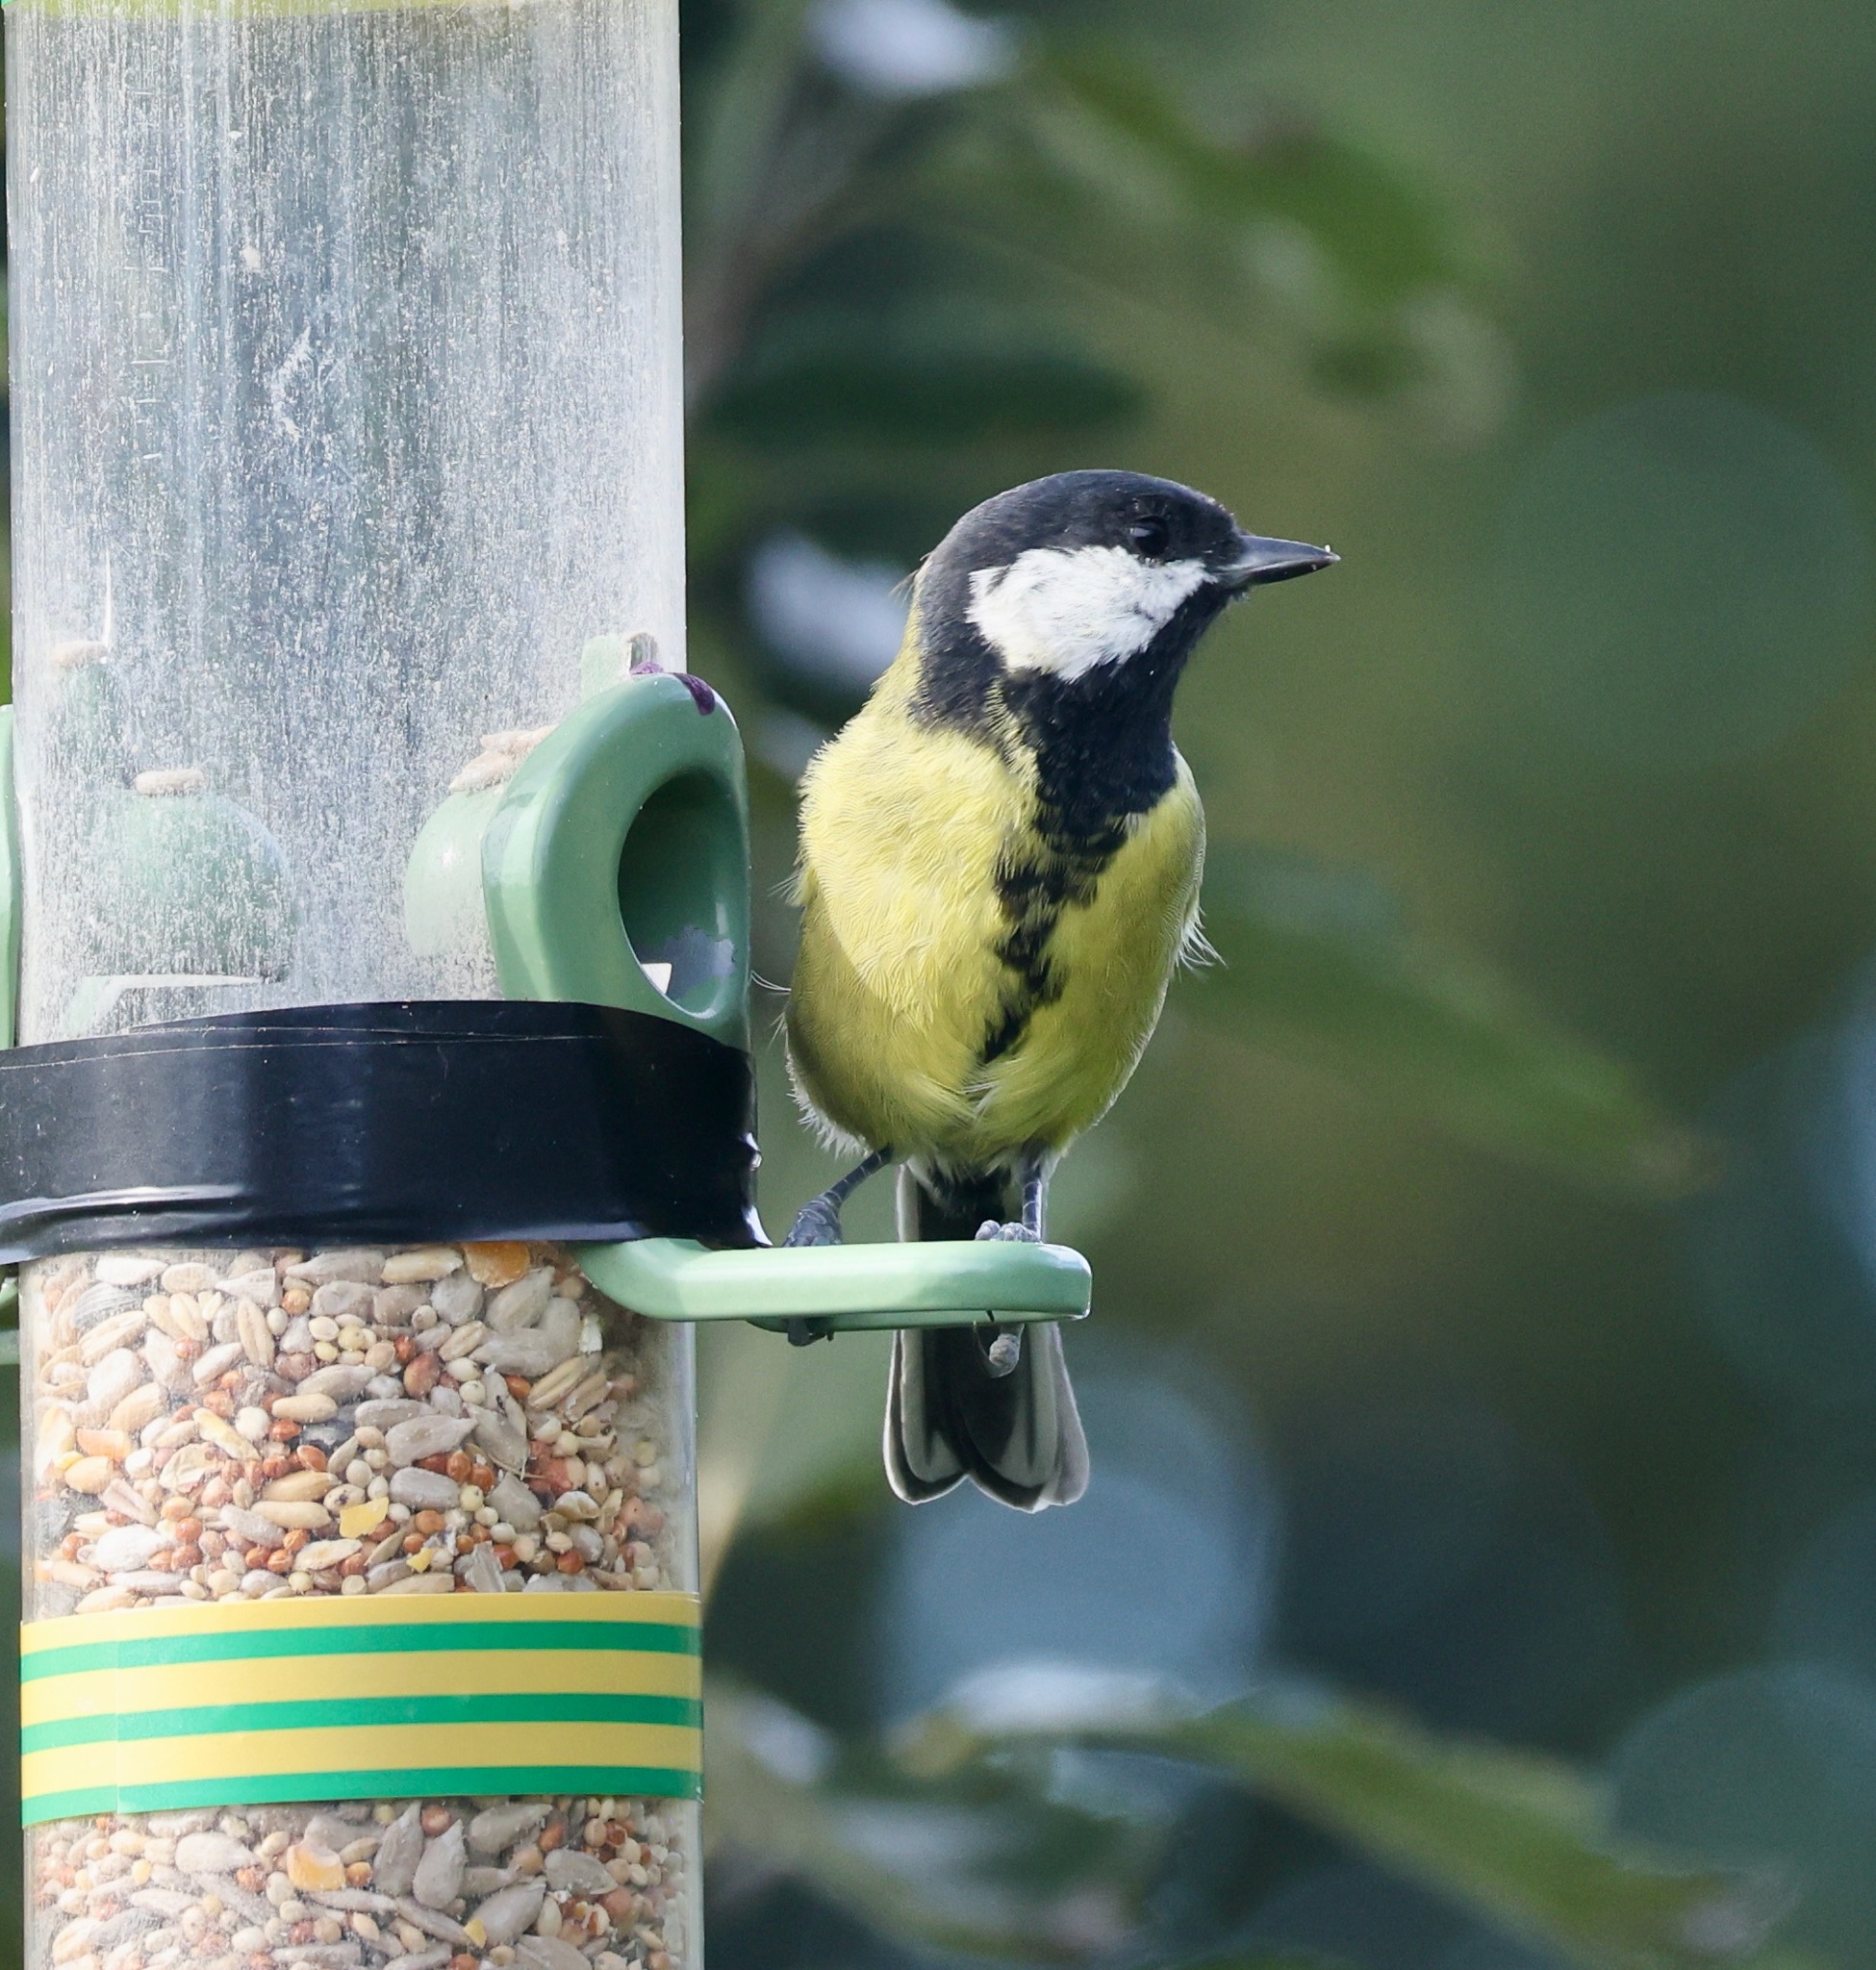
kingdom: Animalia
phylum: Chordata
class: Aves
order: Passeriformes
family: Paridae
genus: Parus
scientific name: Parus major
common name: Great tit
